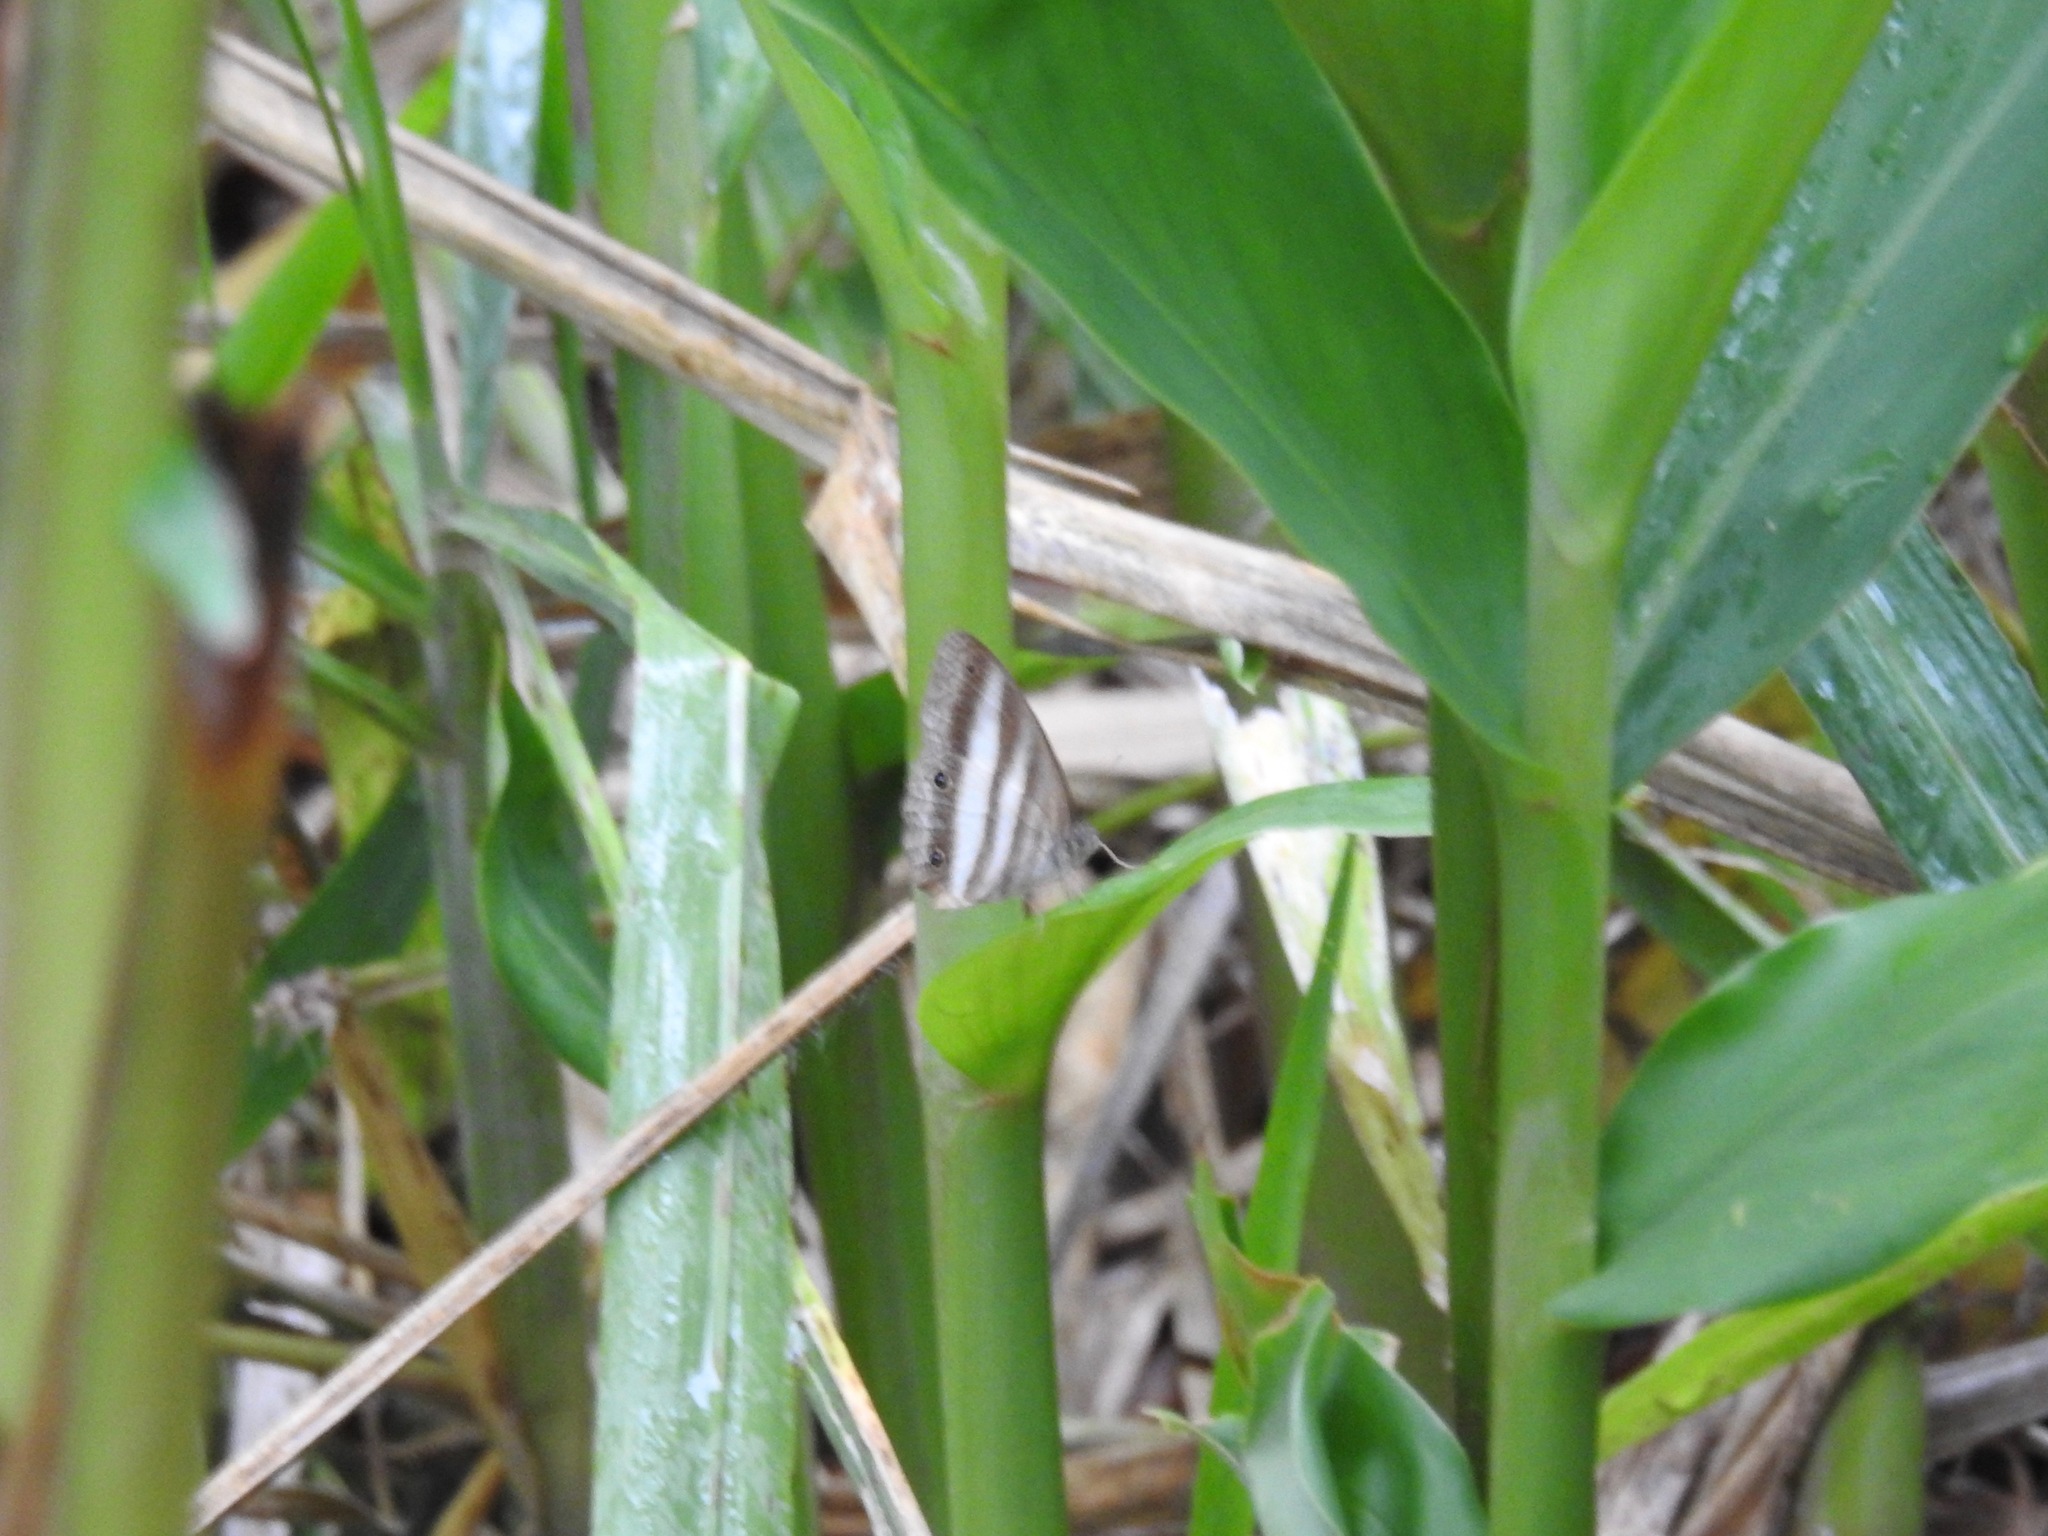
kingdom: Animalia
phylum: Arthropoda
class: Insecta
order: Lepidoptera
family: Nymphalidae
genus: Pareuptychia
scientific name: Pareuptychia hesione
